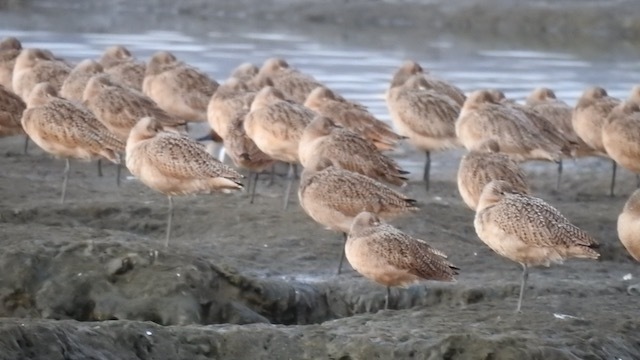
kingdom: Animalia
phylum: Chordata
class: Aves
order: Charadriiformes
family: Scolopacidae
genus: Limosa
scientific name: Limosa fedoa
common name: Marbled godwit
